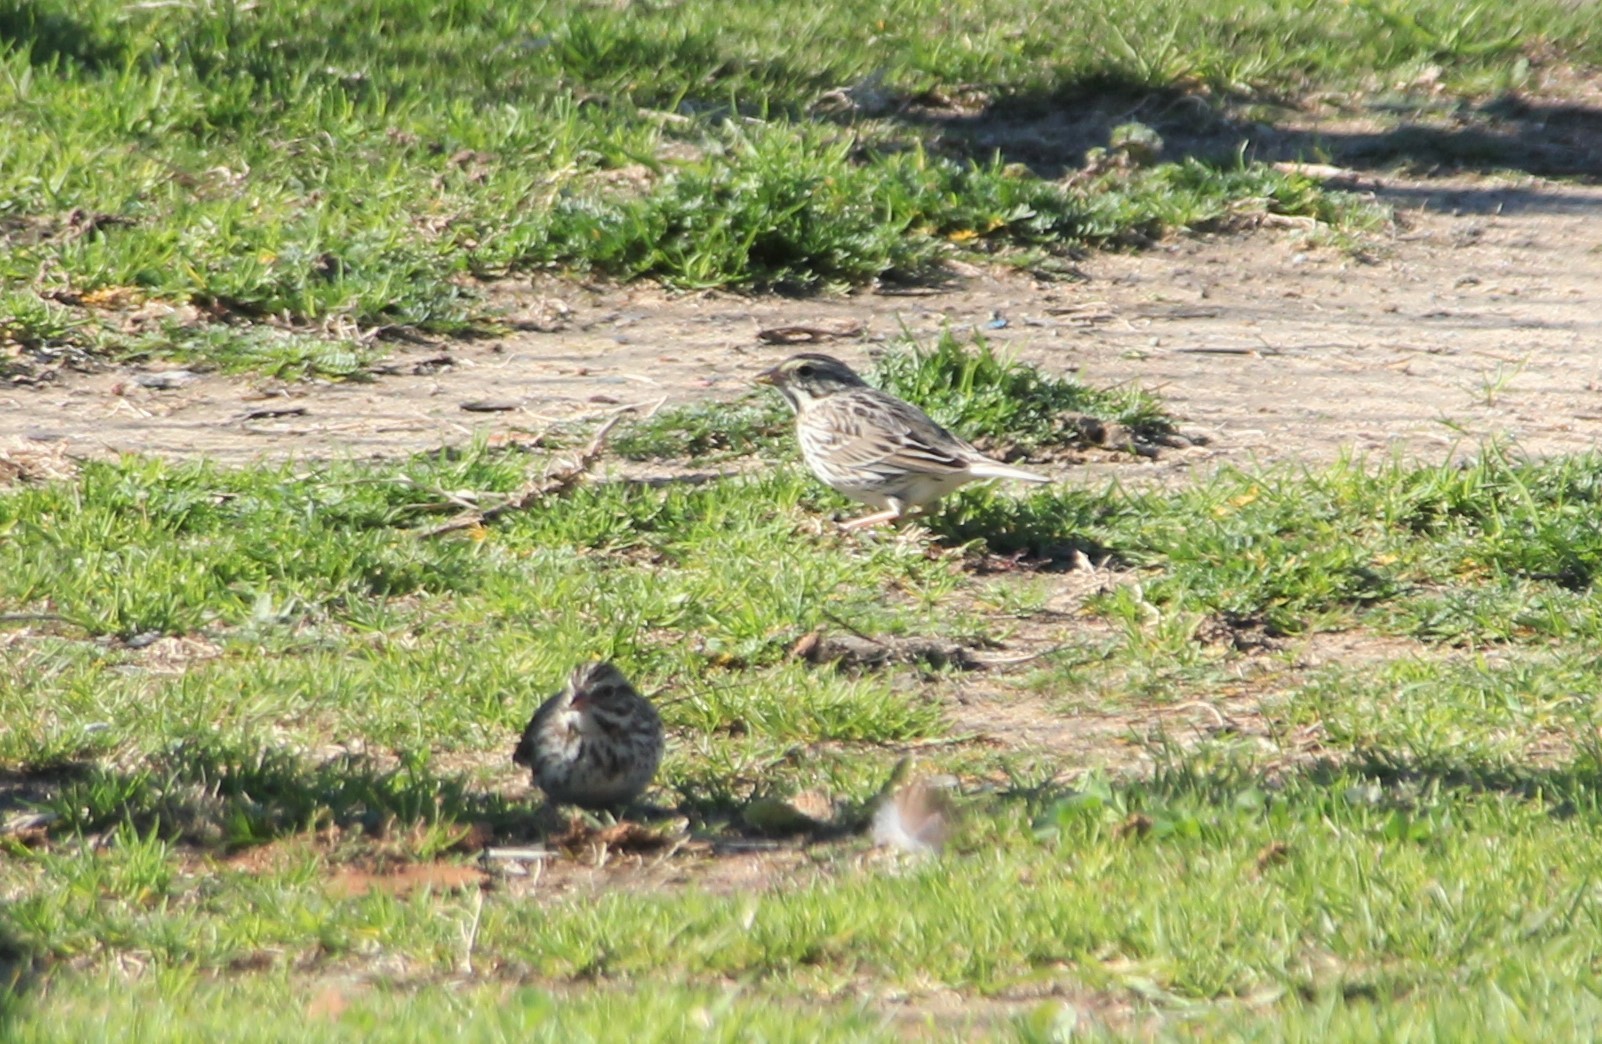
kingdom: Animalia
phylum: Chordata
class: Aves
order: Passeriformes
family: Passerellidae
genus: Passerculus
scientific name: Passerculus sandwichensis
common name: Savannah sparrow
